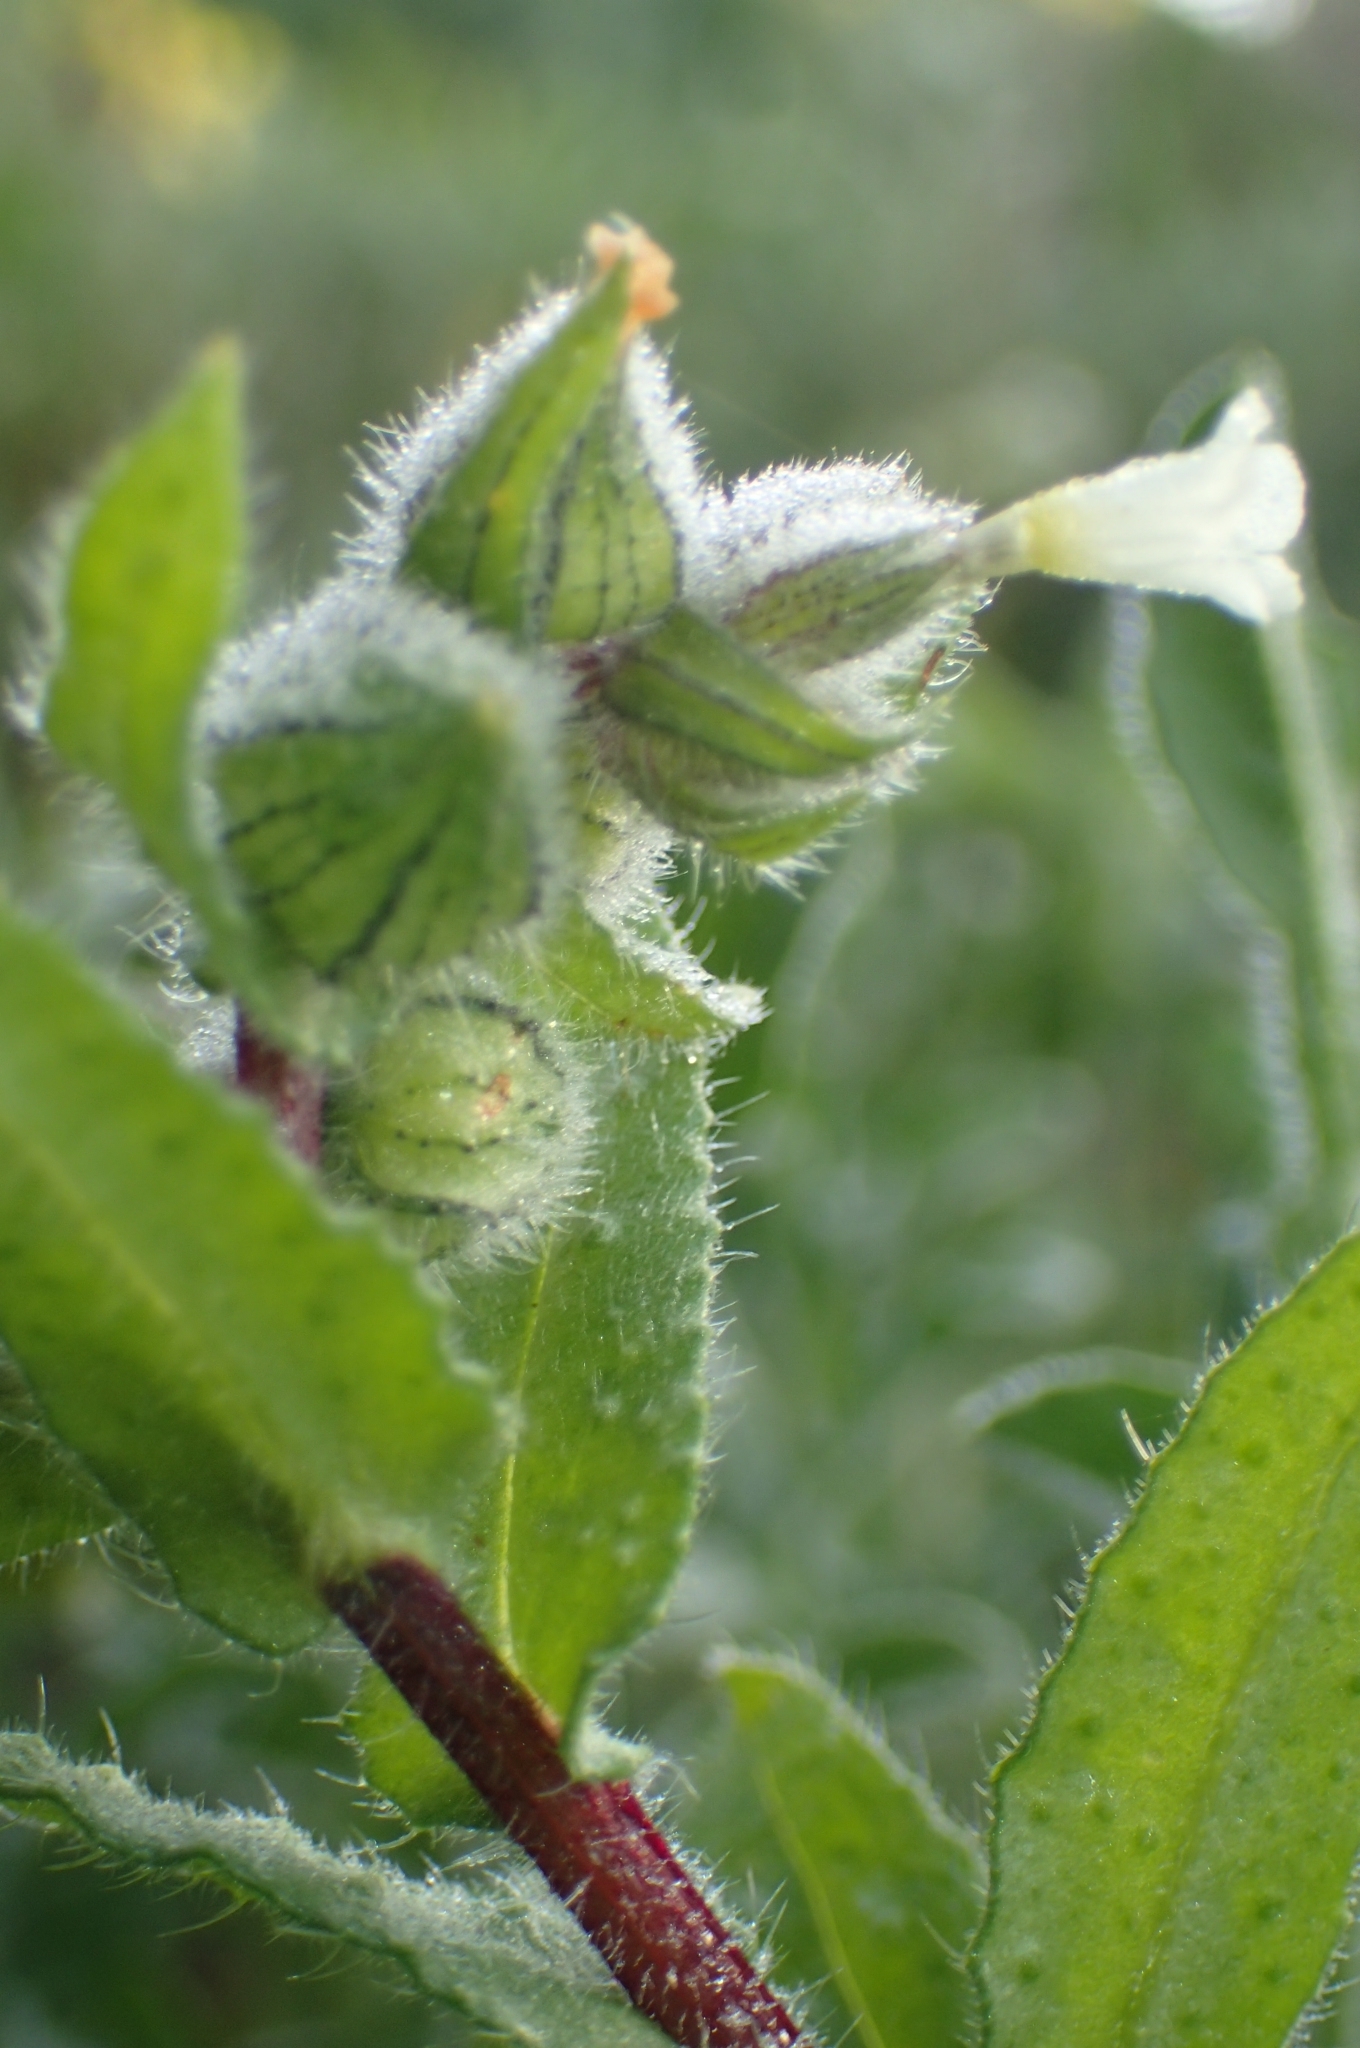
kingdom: Plantae
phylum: Tracheophyta
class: Magnoliopsida
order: Boraginales
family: Boraginaceae
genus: Nonea
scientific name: Nonea echioides
